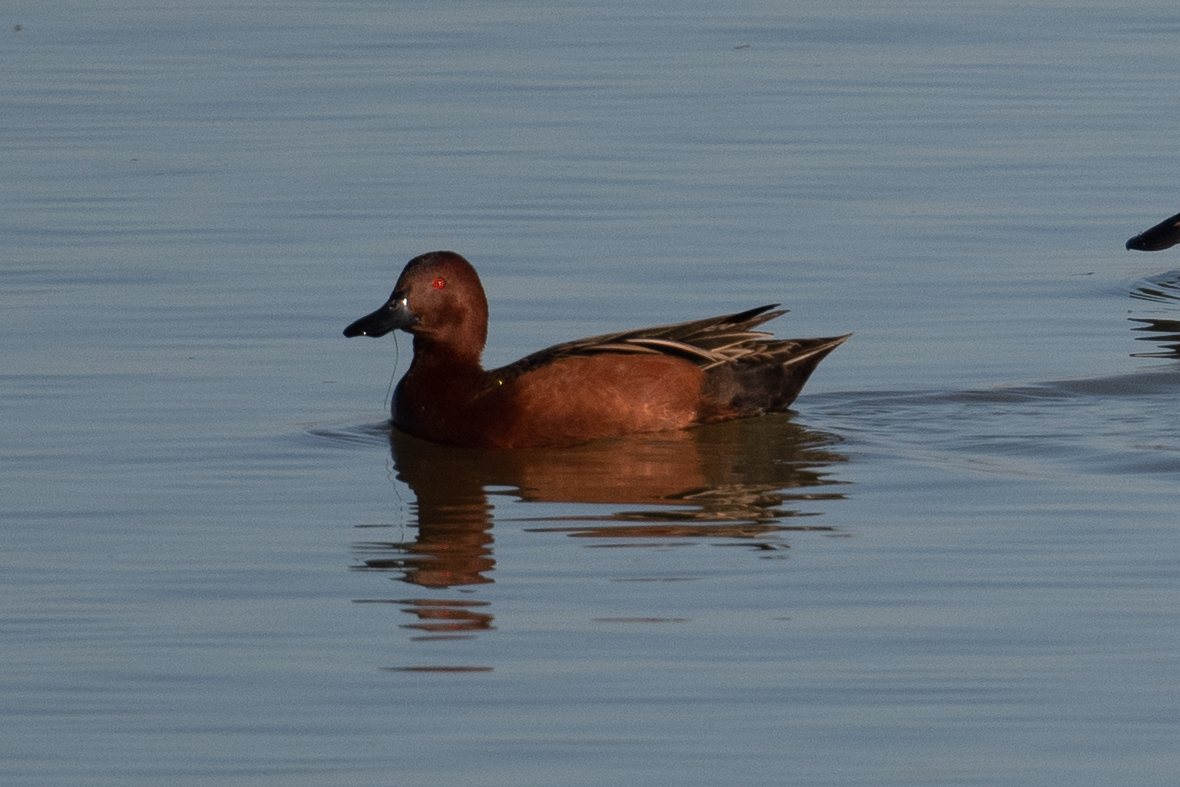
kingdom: Animalia
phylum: Chordata
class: Aves
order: Anseriformes
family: Anatidae
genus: Spatula
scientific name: Spatula cyanoptera
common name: Cinnamon teal
